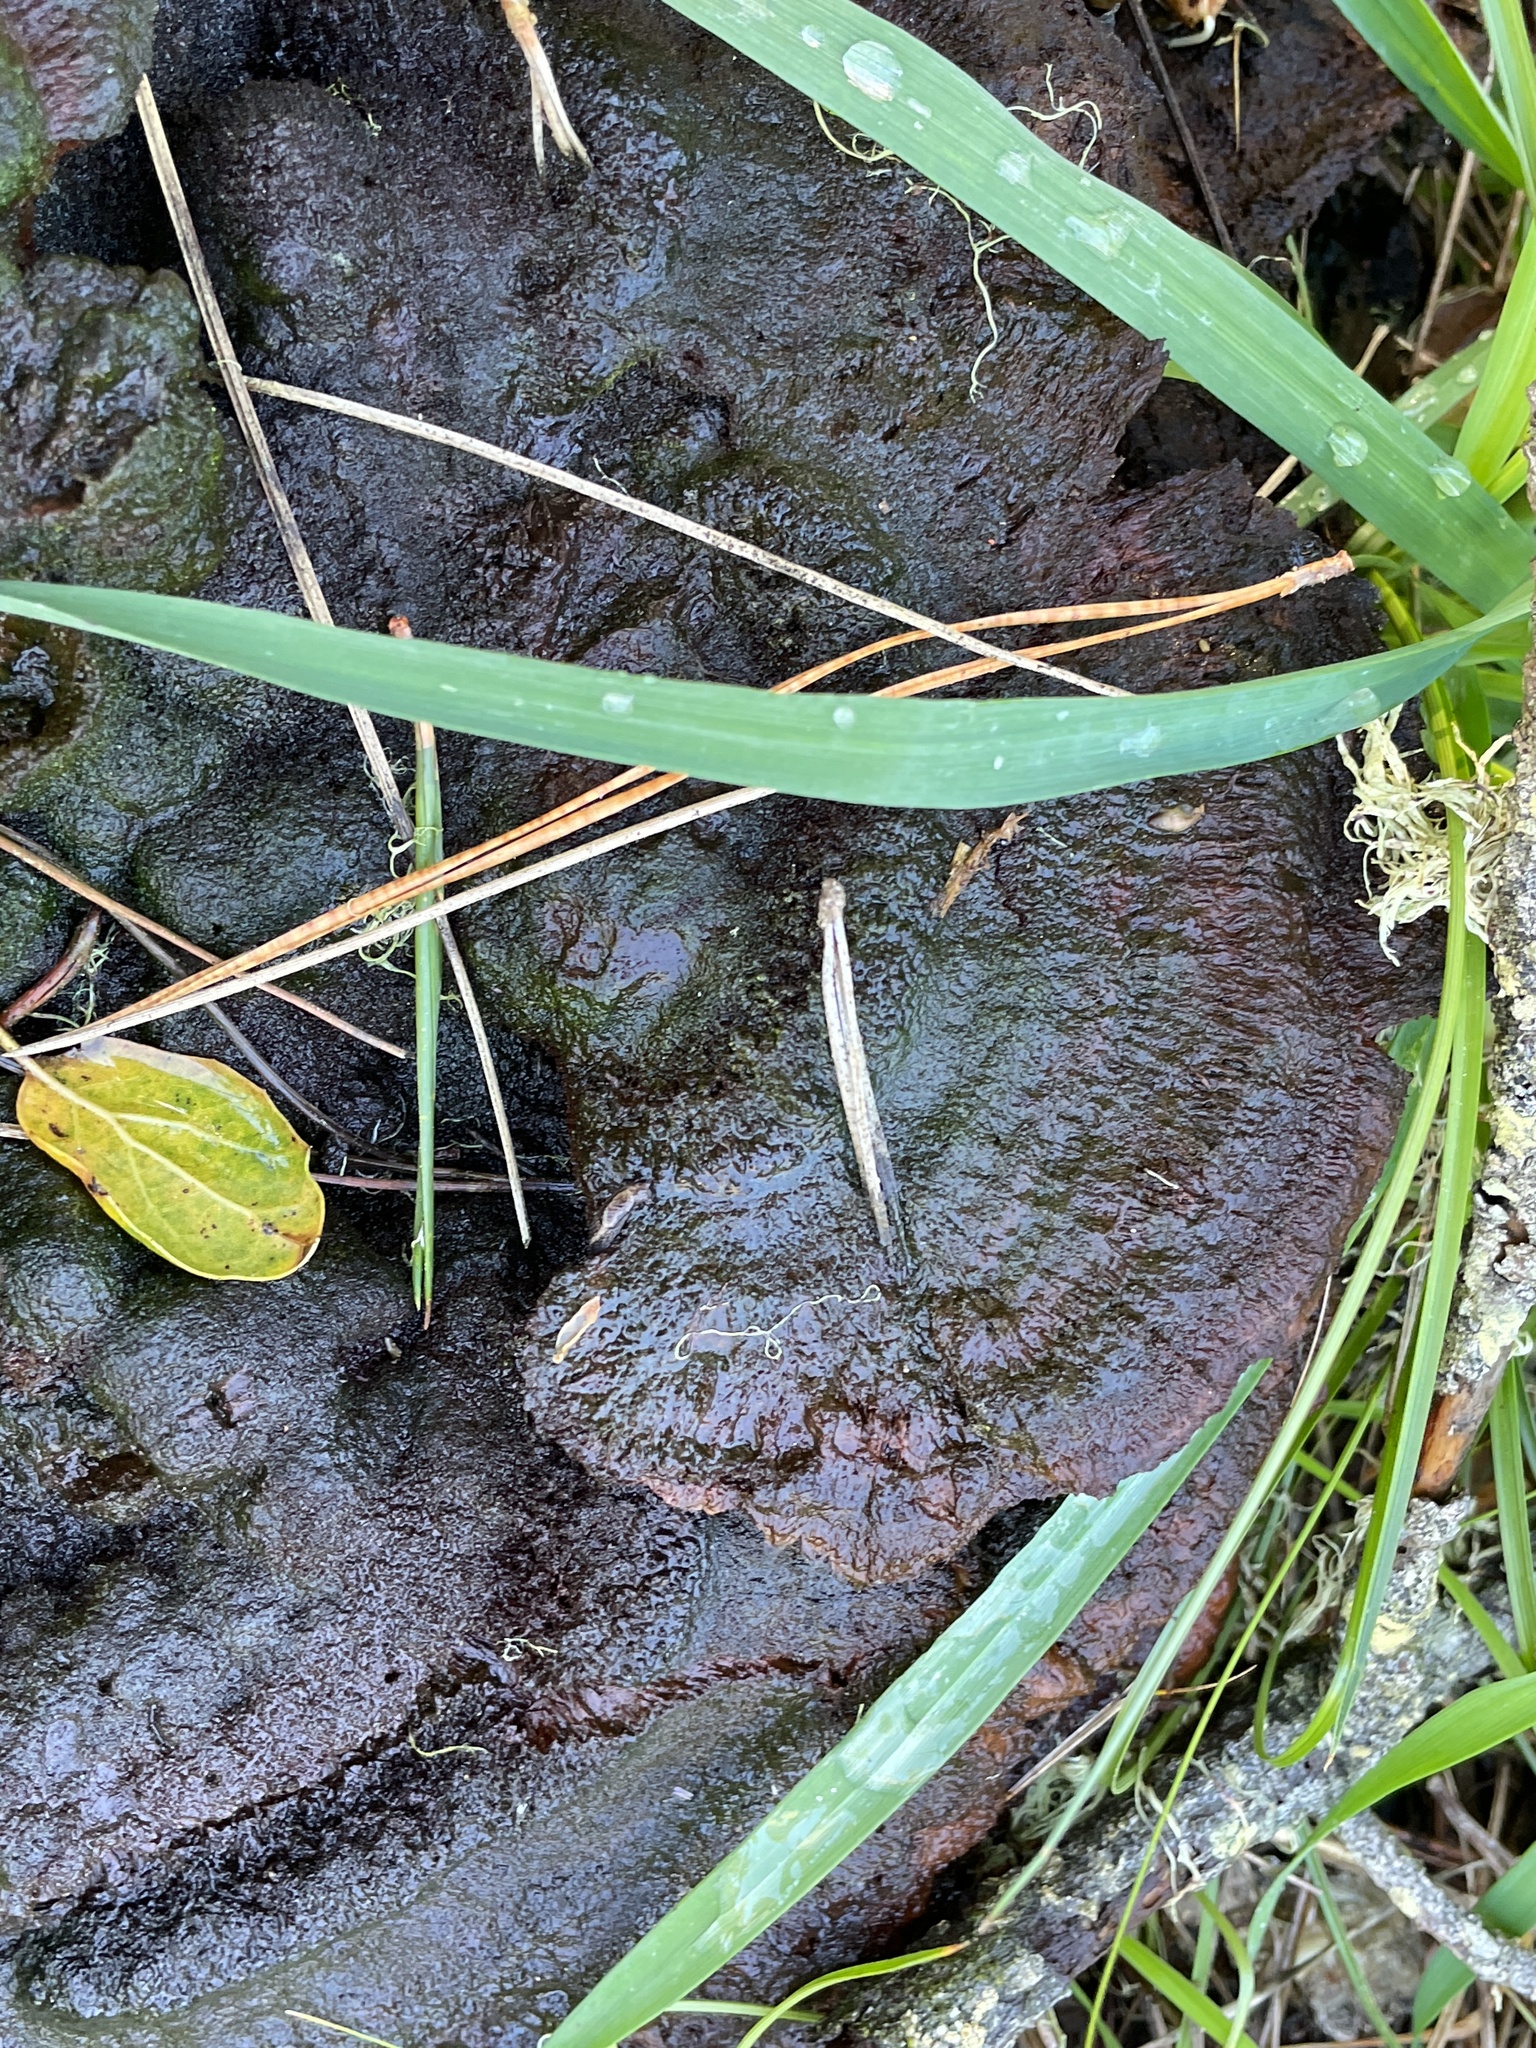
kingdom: Fungi
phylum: Basidiomycota
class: Agaricomycetes
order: Polyporales
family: Laetiporaceae
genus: Phaeolus
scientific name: Phaeolus schweinitzii
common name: Dyer's mazegill
